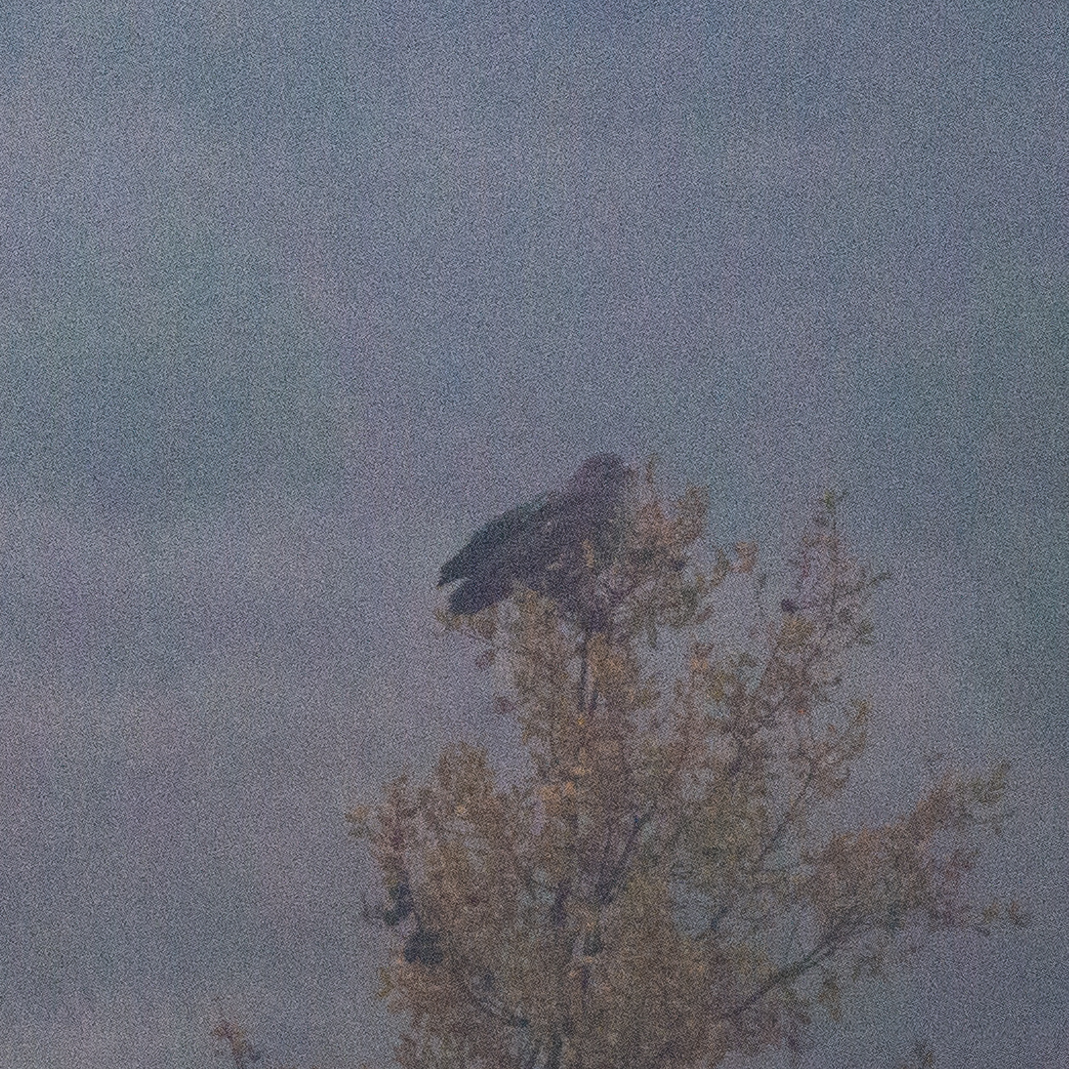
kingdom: Animalia
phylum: Chordata
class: Aves
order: Accipitriformes
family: Accipitridae
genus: Buteo
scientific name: Buteo buteo
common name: Common buzzard
